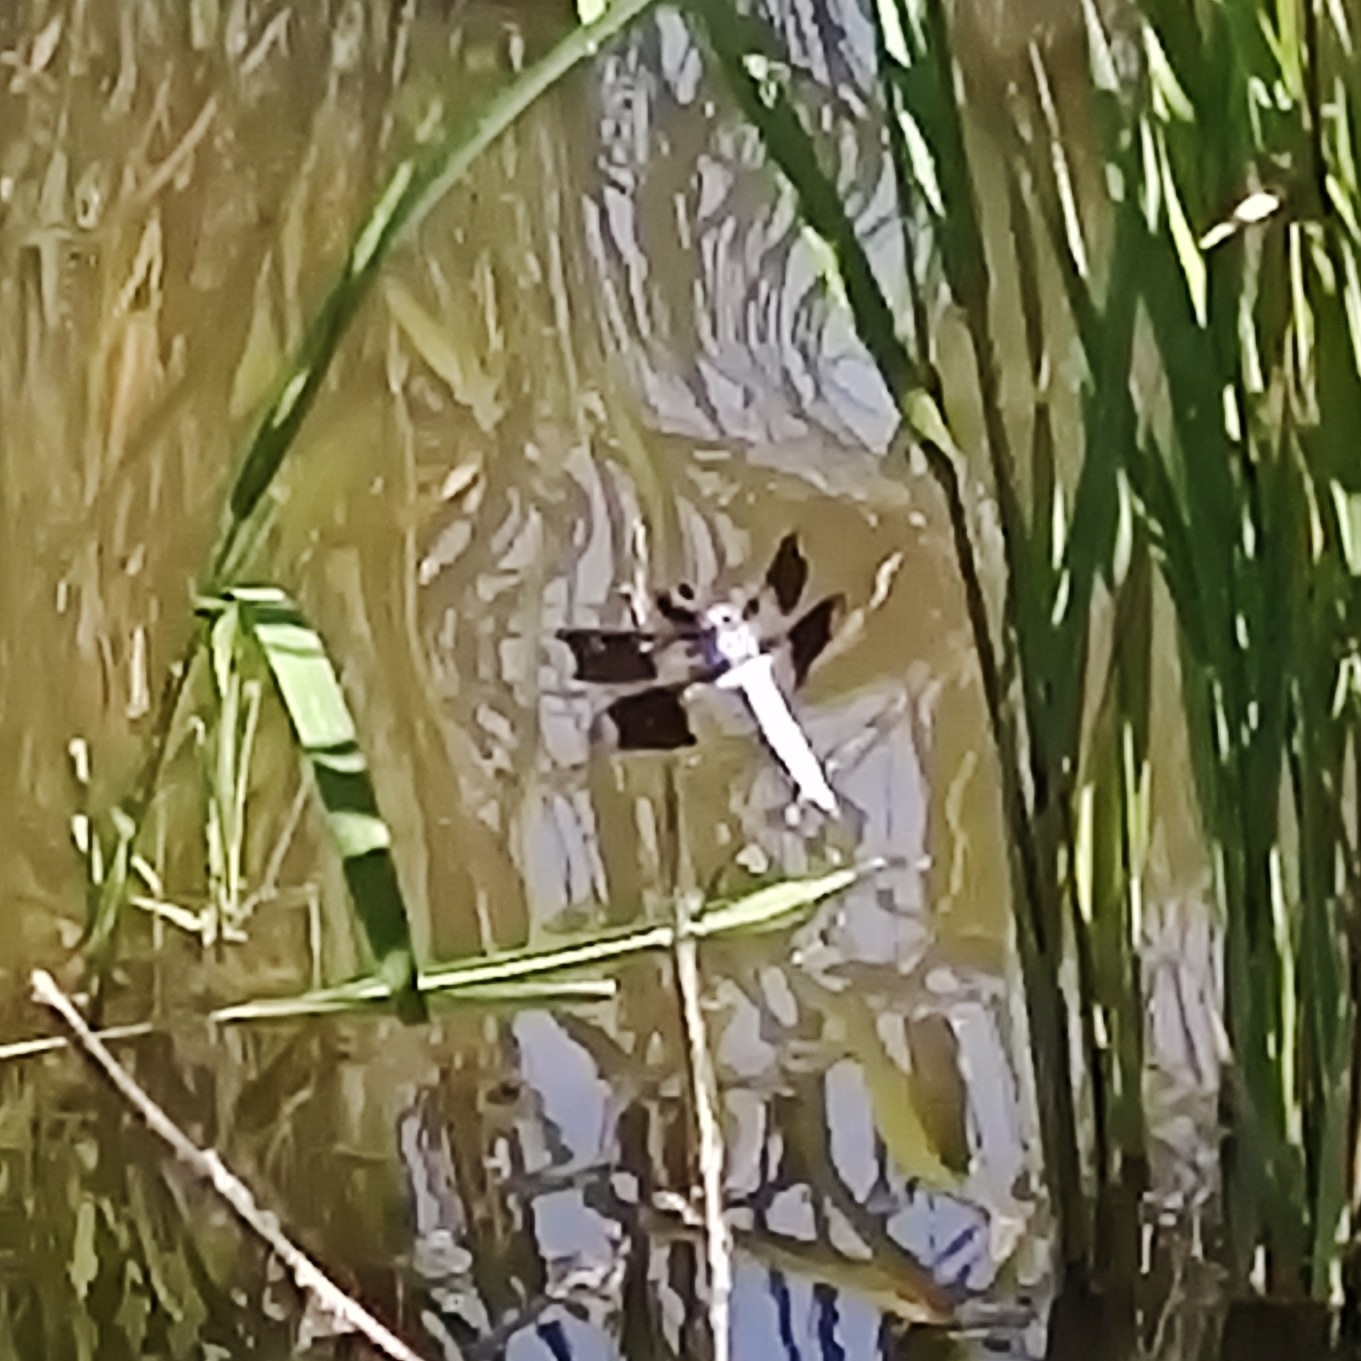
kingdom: Animalia
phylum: Arthropoda
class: Insecta
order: Odonata
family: Libellulidae
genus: Plathemis
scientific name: Plathemis lydia
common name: Common whitetail
